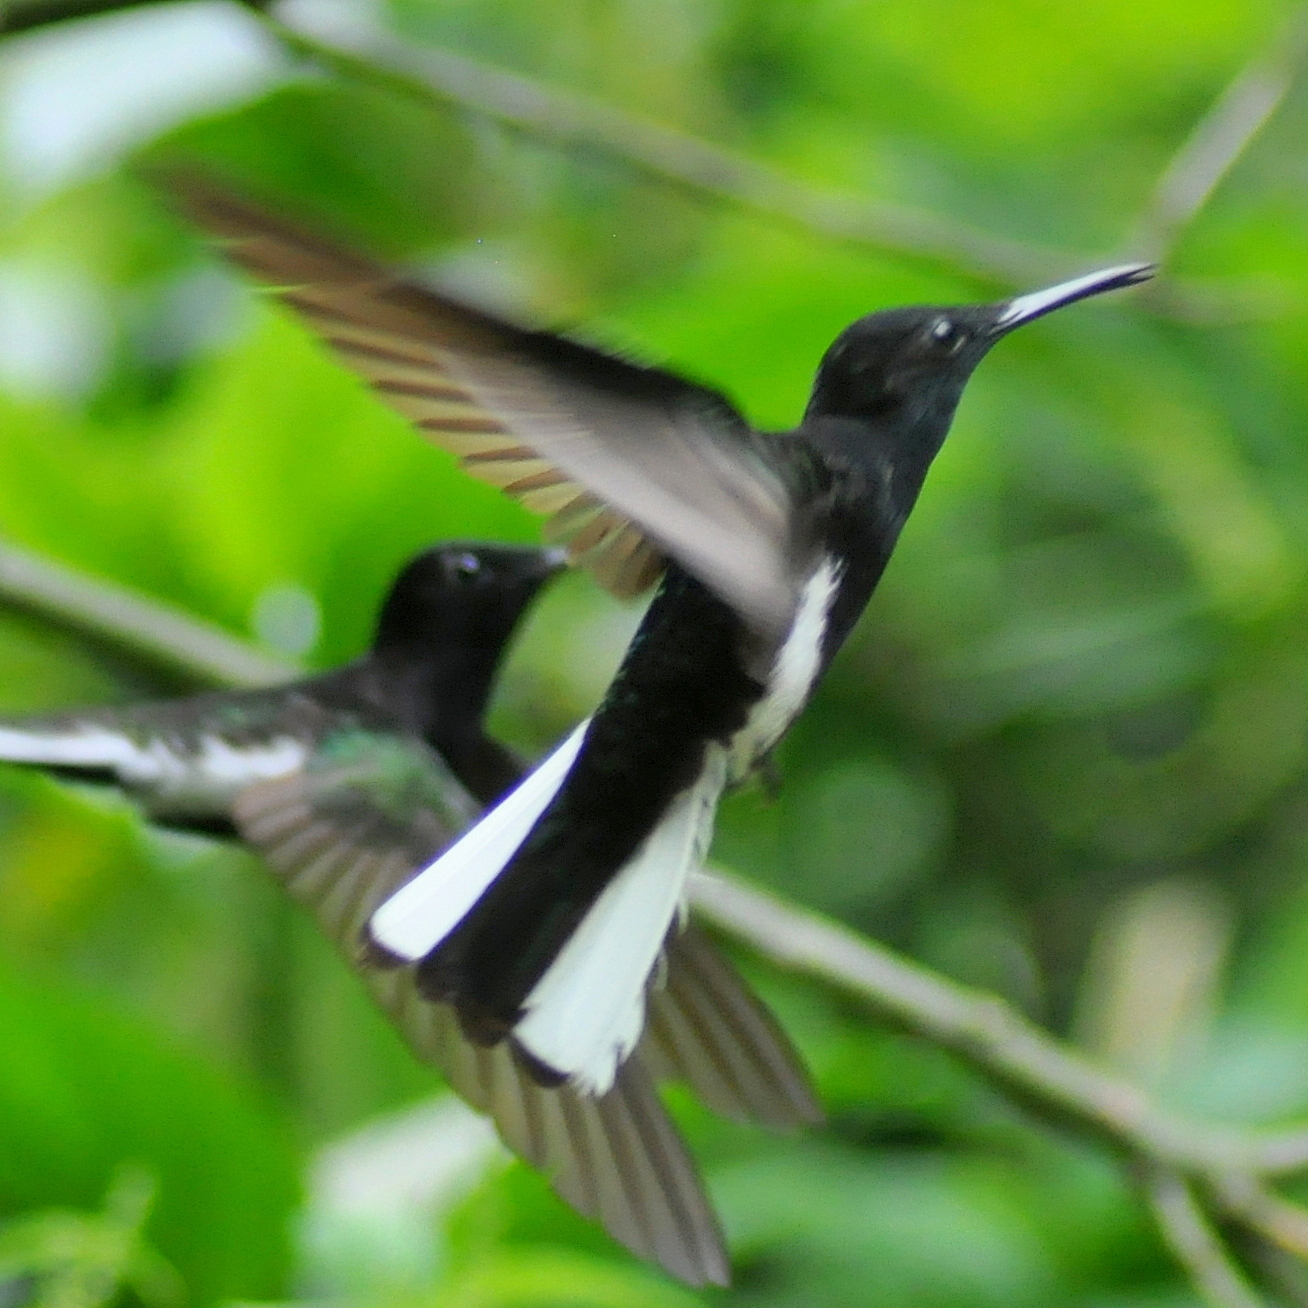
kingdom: Animalia
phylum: Chordata
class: Aves
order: Apodiformes
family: Trochilidae
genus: Florisuga
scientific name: Florisuga fusca
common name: Black jacobin
